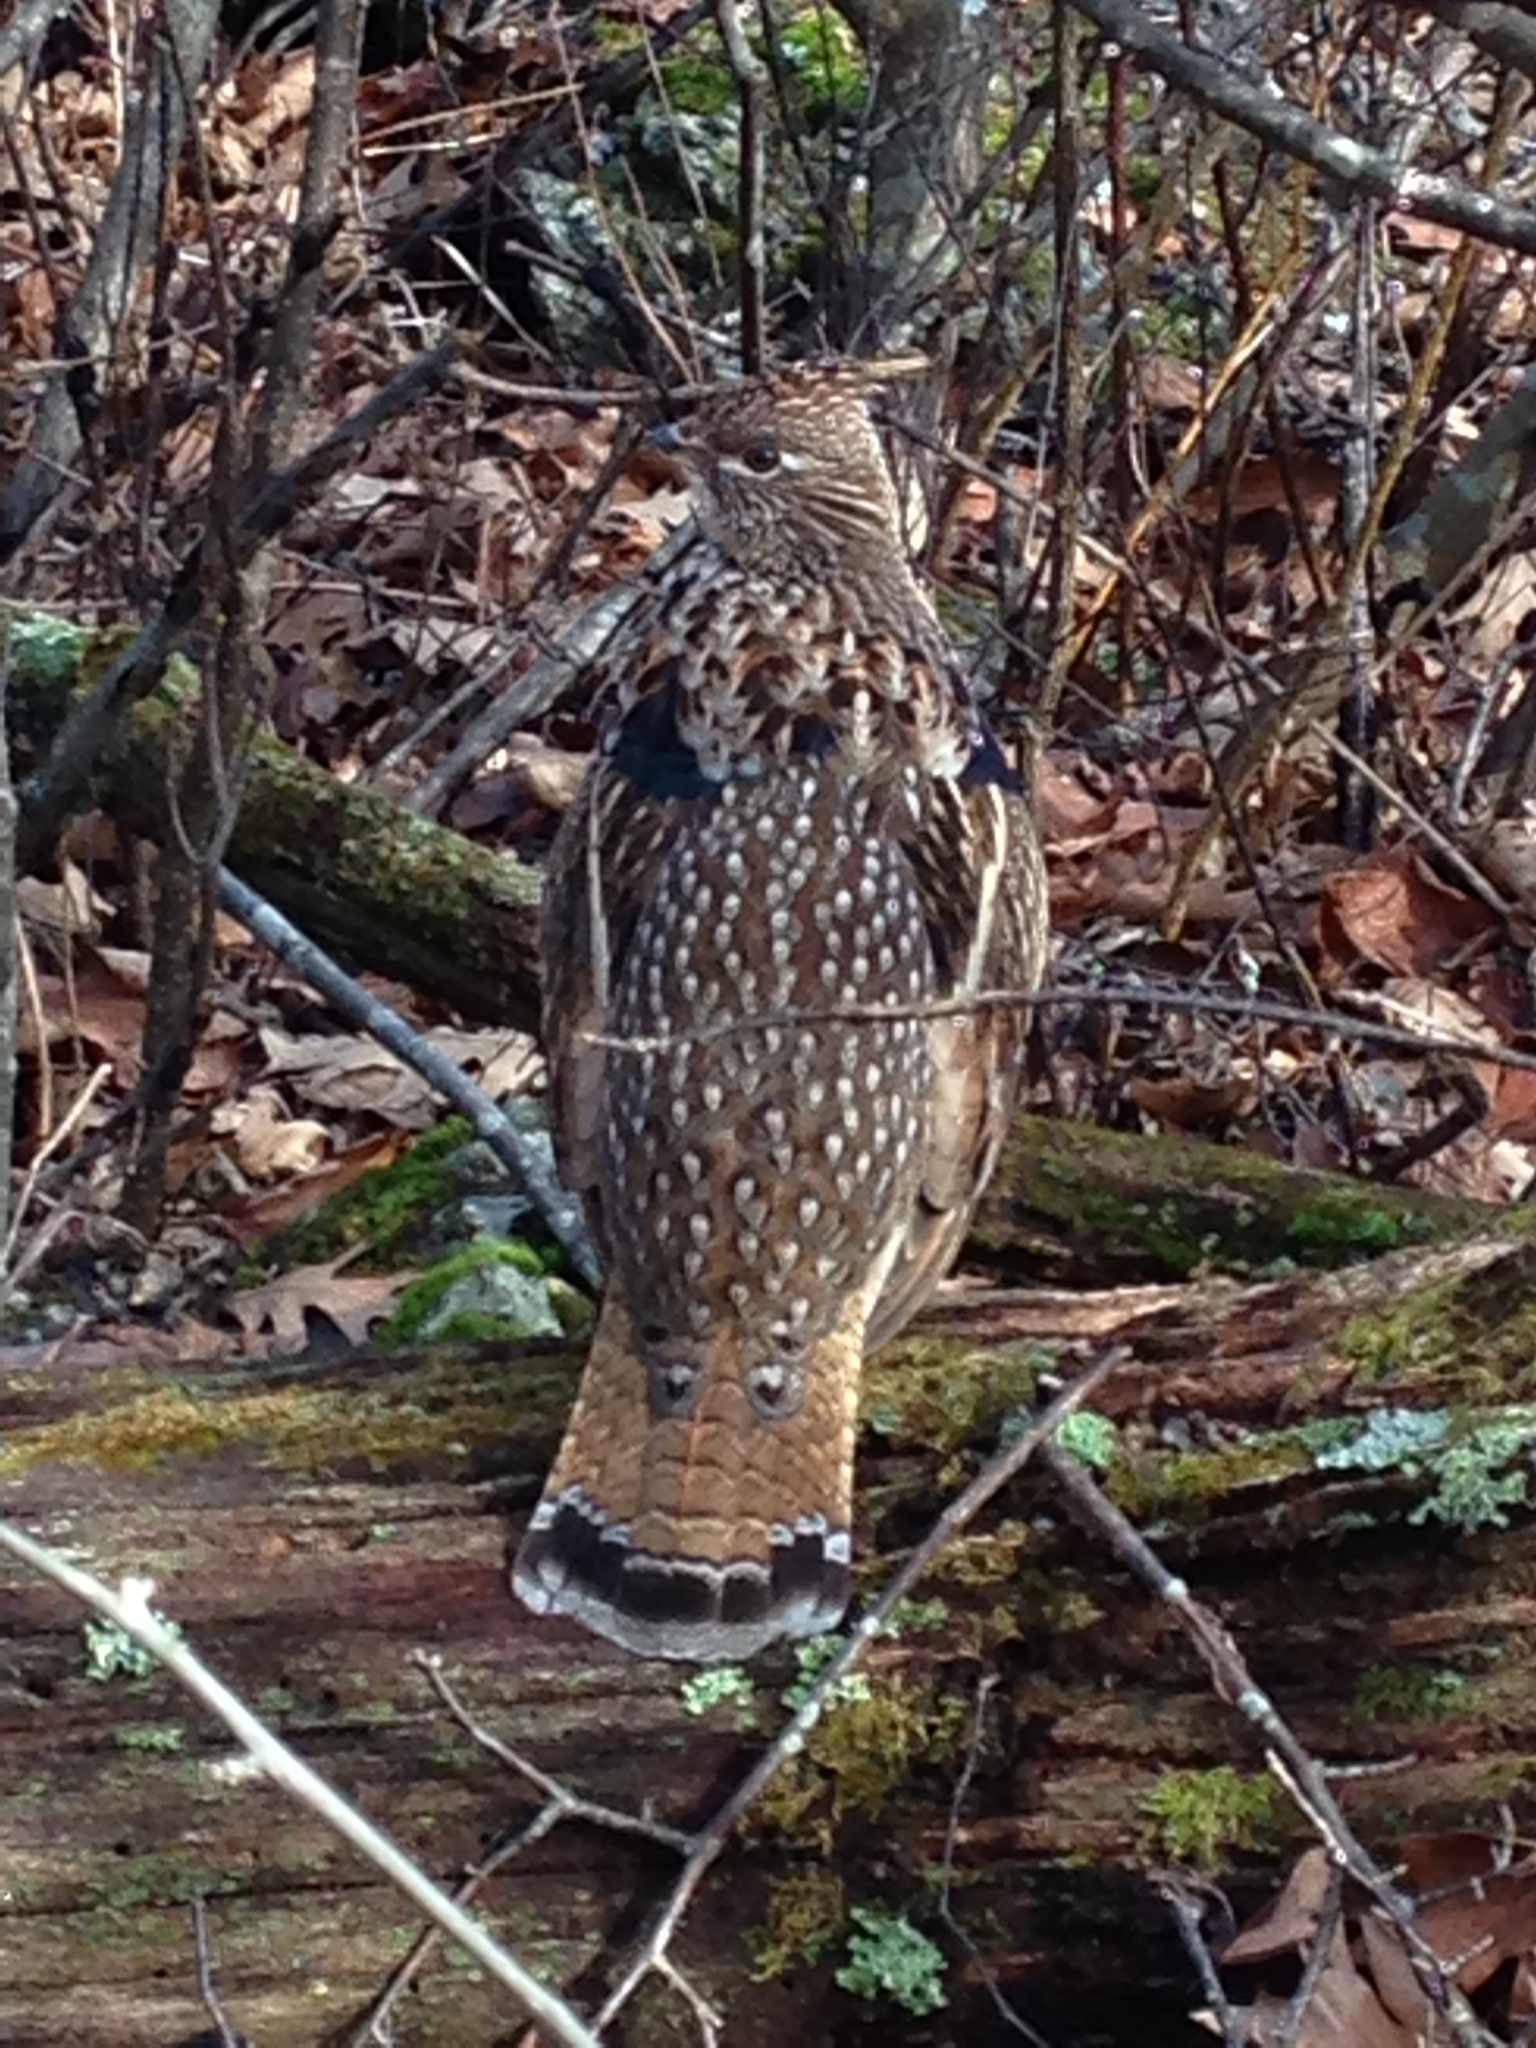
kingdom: Animalia
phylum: Chordata
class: Aves
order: Galliformes
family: Phasianidae
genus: Bonasa
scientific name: Bonasa umbellus
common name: Ruffed grouse
